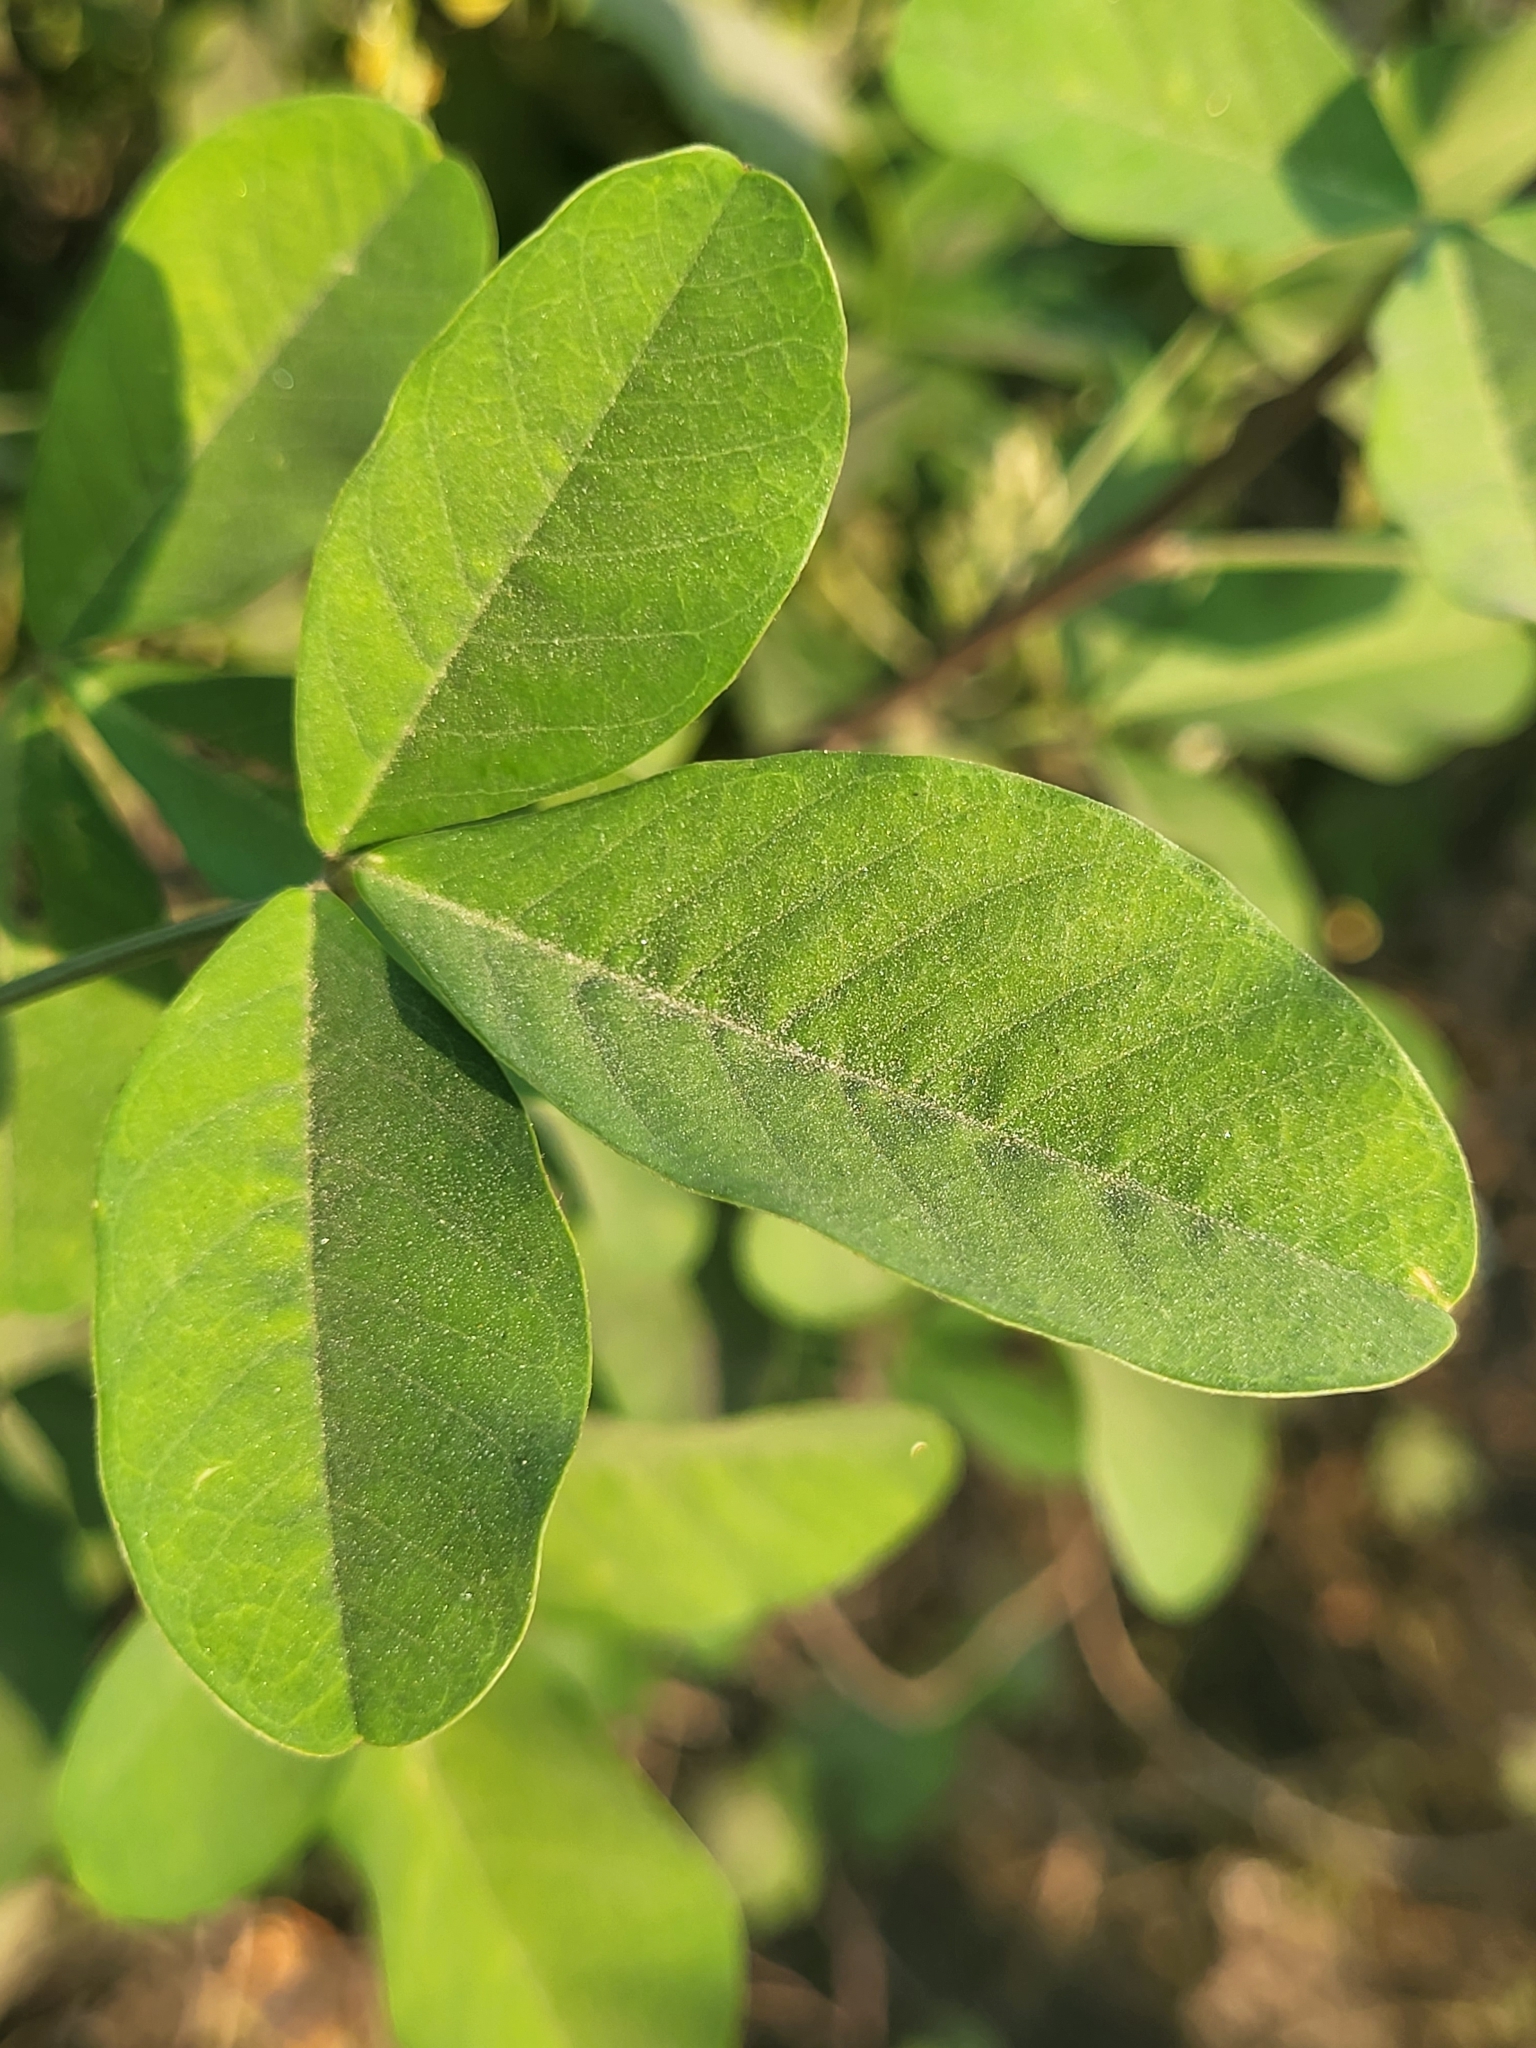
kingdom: Plantae
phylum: Tracheophyta
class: Magnoliopsida
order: Fabales
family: Fabaceae
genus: Crotalaria
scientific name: Crotalaria pallida
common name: Smooth rattlebox
